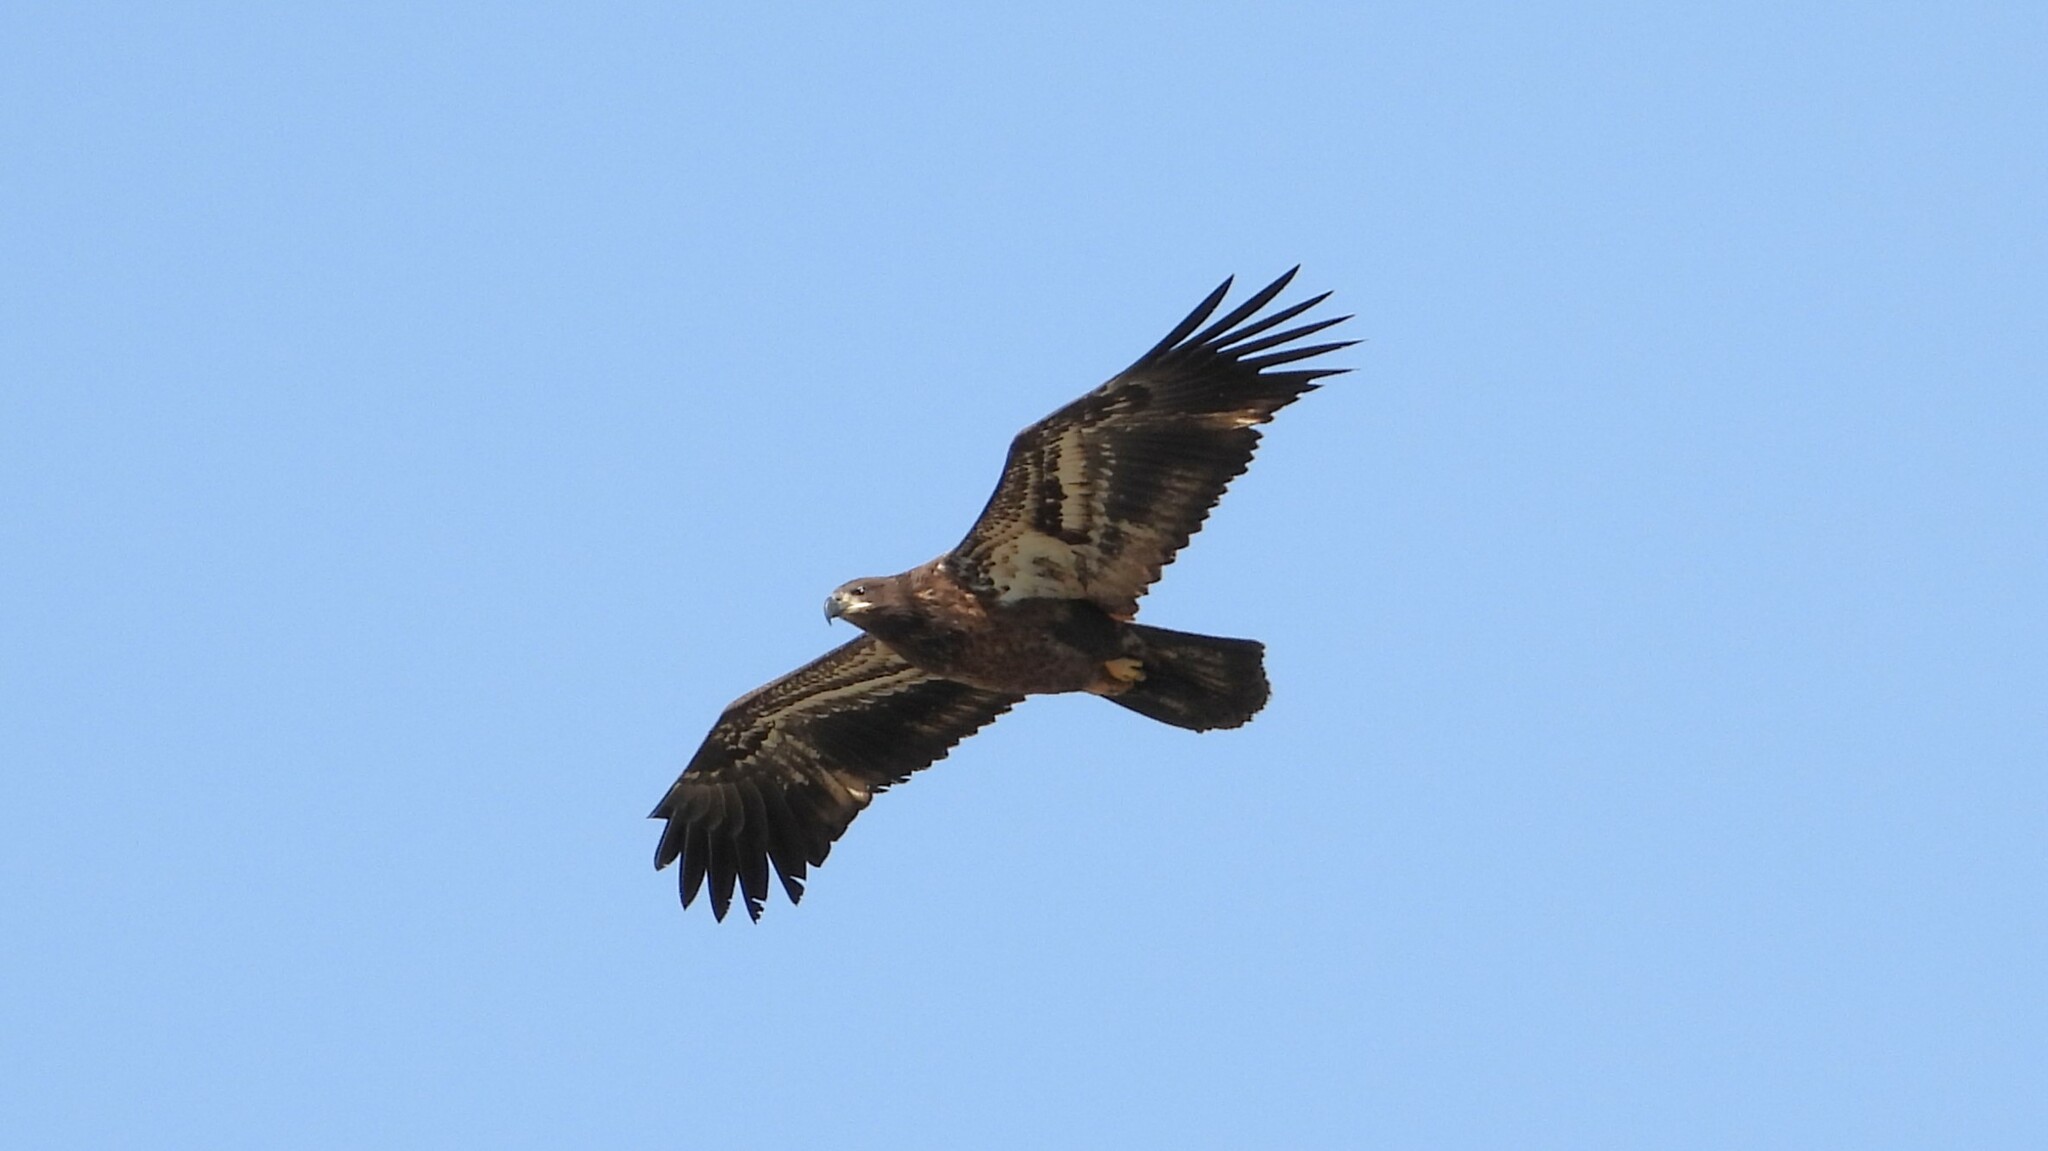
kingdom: Animalia
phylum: Chordata
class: Aves
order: Accipitriformes
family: Accipitridae
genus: Haliaeetus
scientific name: Haliaeetus leucocephalus
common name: Bald eagle
